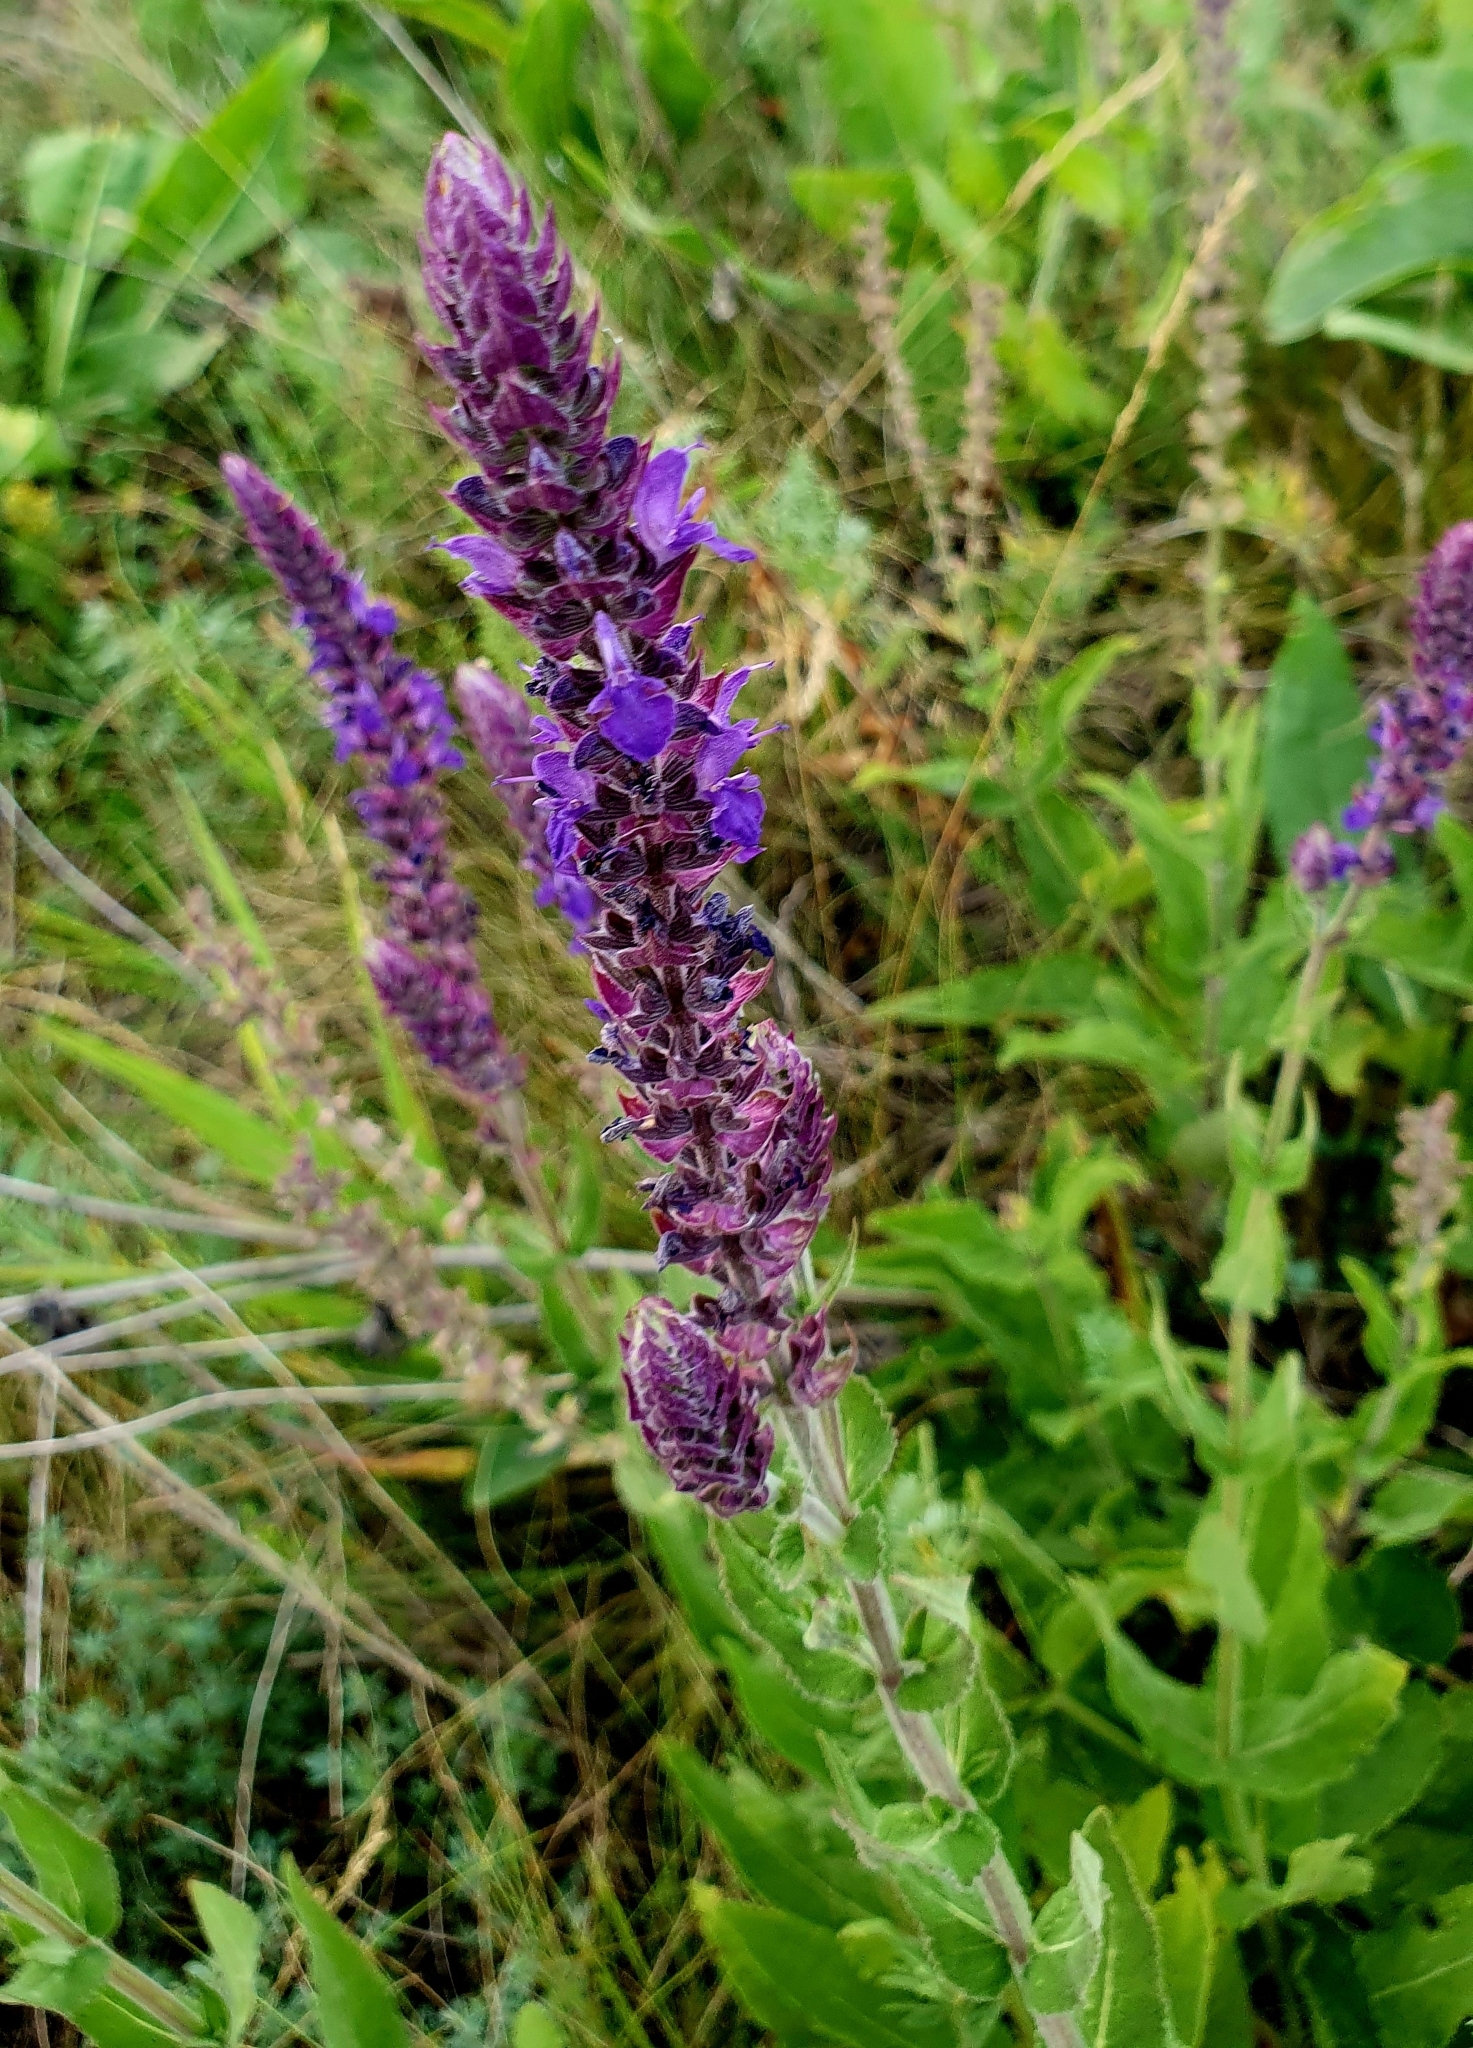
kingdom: Plantae
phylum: Tracheophyta
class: Magnoliopsida
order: Lamiales
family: Lamiaceae
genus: Salvia
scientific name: Salvia nemorosa
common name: Balkan clary
